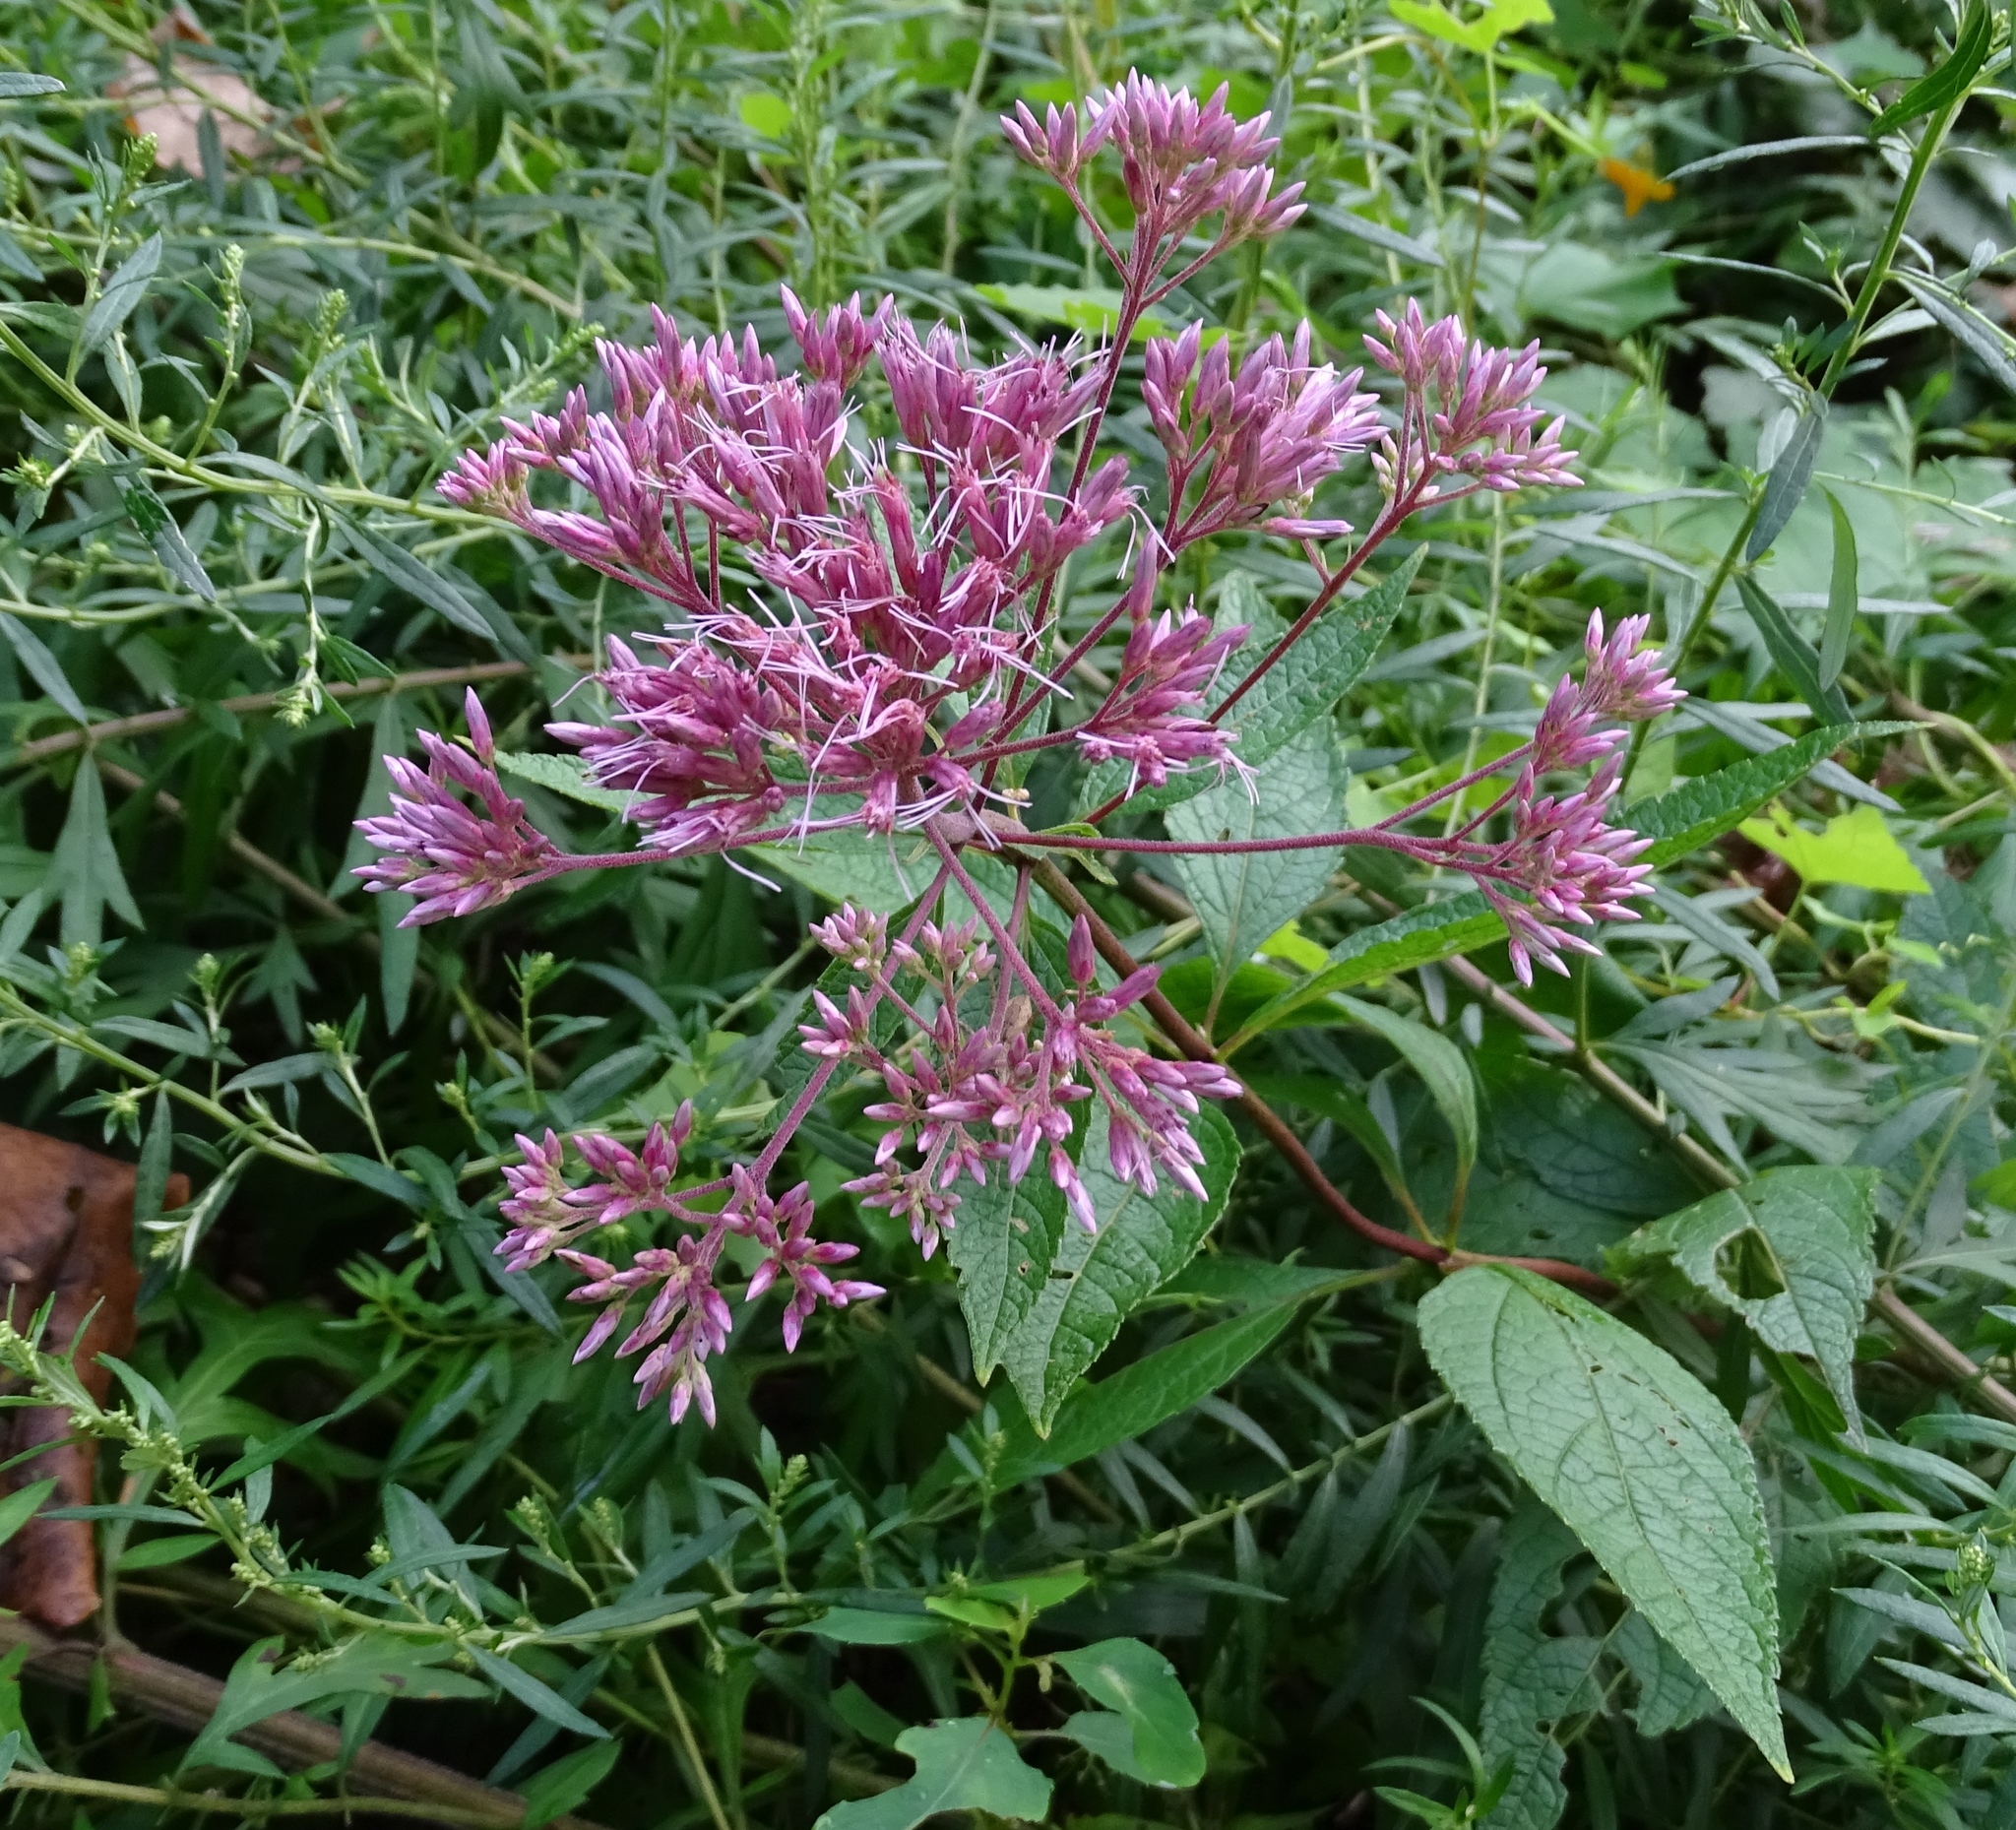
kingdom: Plantae
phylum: Tracheophyta
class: Magnoliopsida
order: Asterales
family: Asteraceae
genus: Eutrochium
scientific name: Eutrochium dubium
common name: Coastal plain joe pye weed
